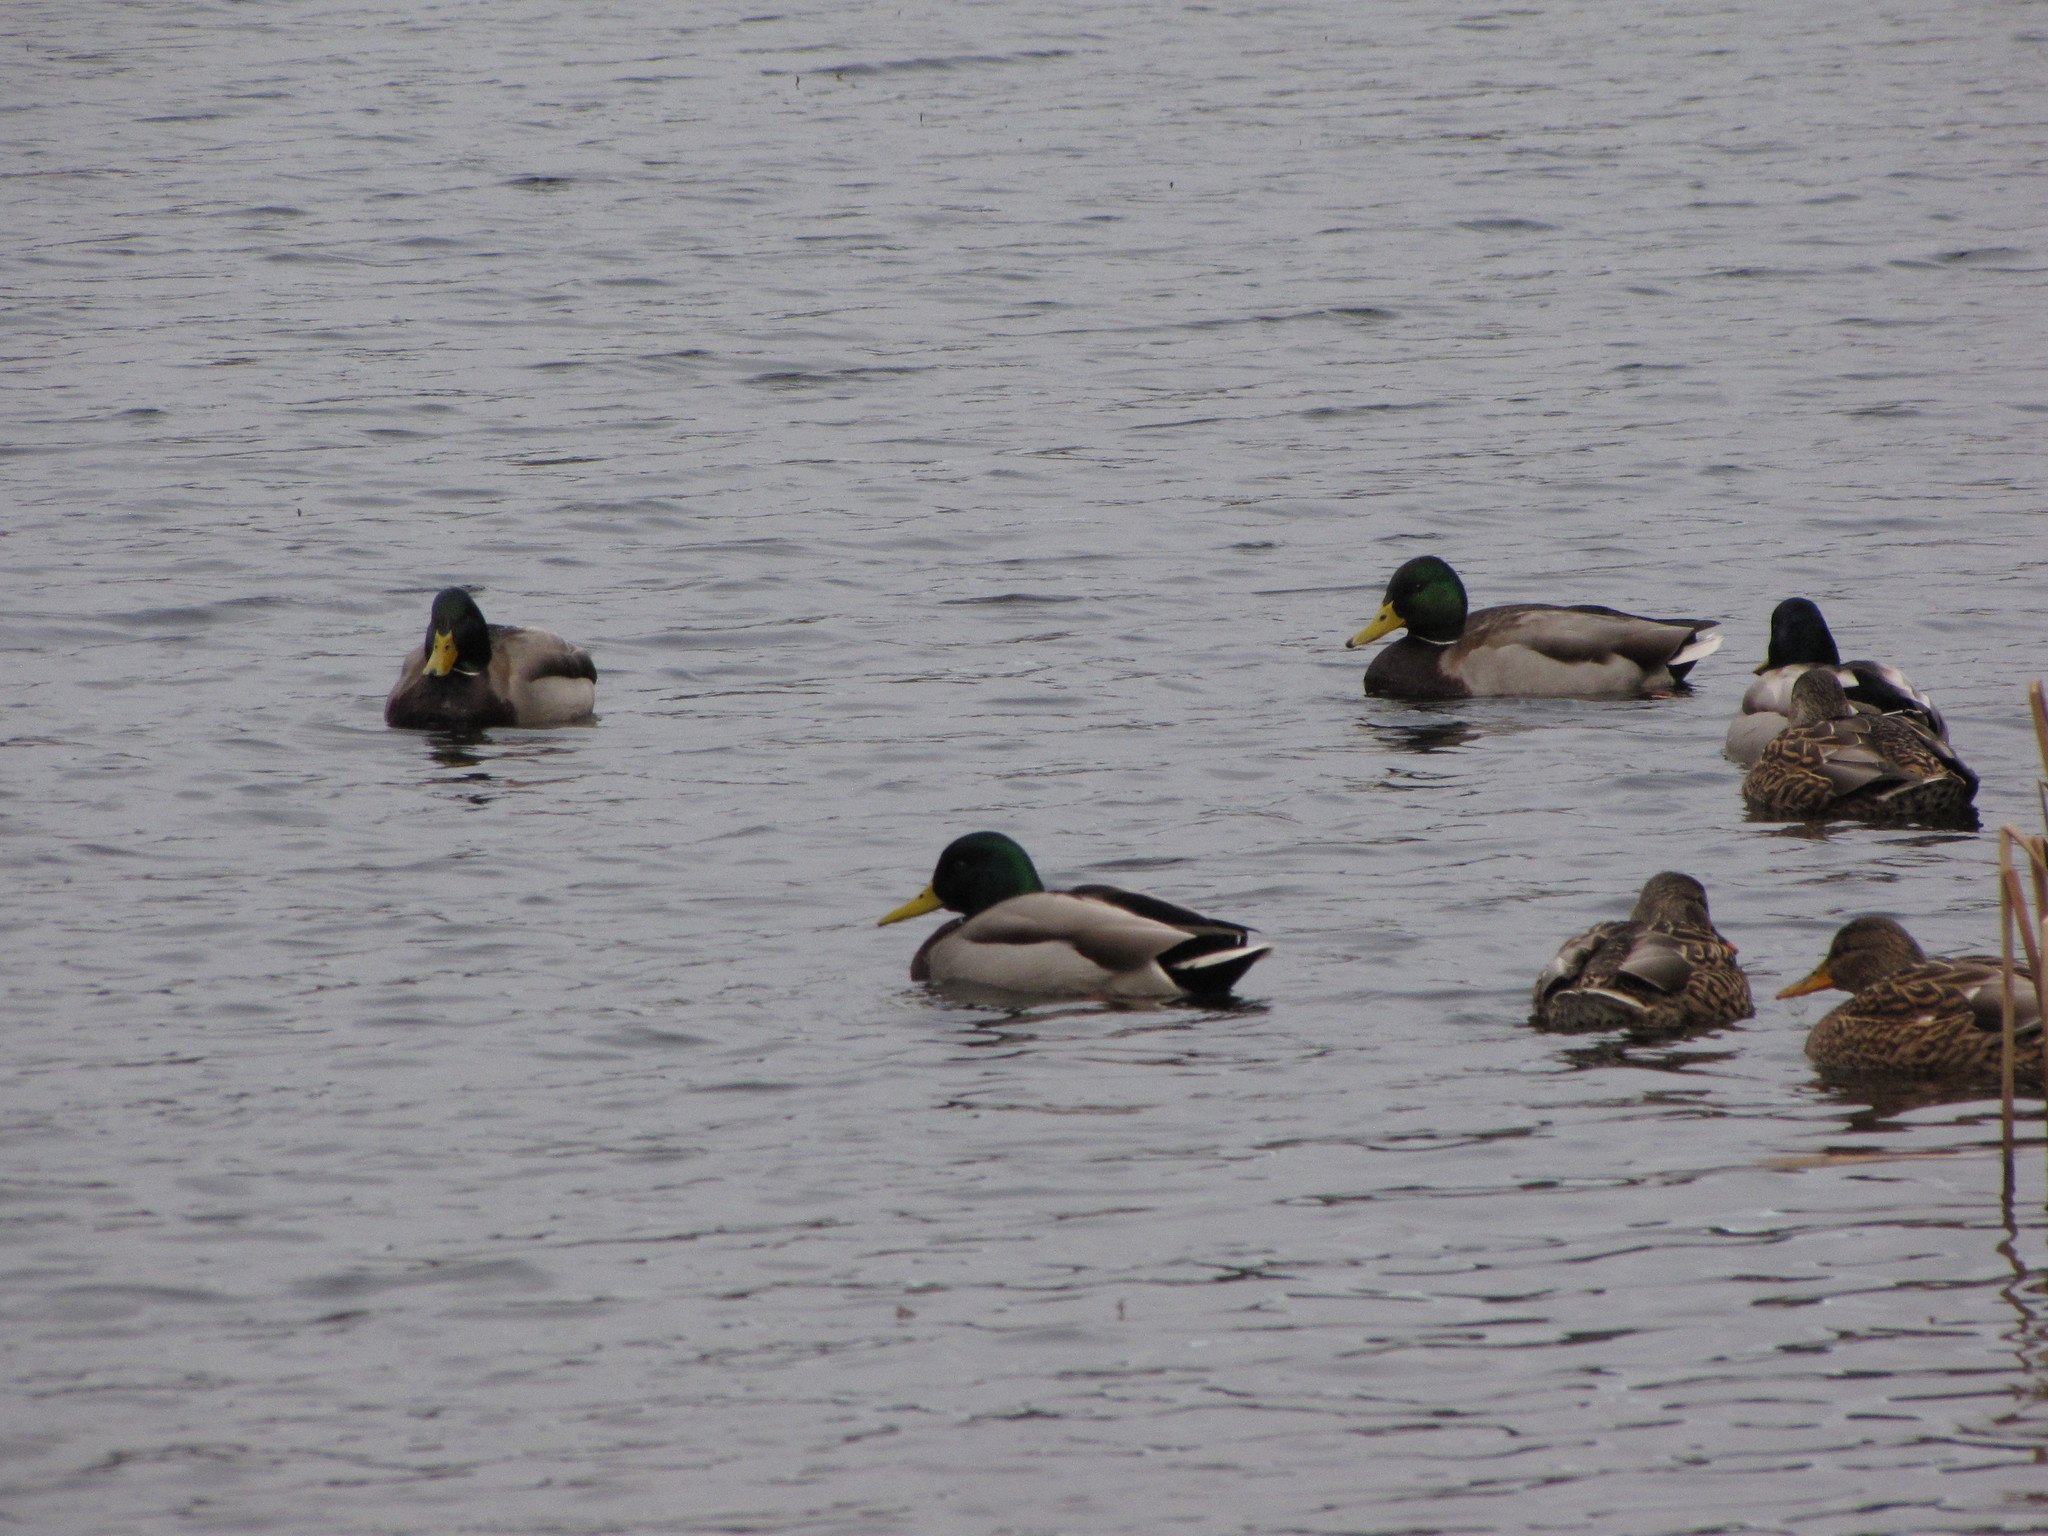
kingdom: Animalia
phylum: Chordata
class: Aves
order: Anseriformes
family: Anatidae
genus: Anas
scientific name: Anas platyrhynchos
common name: Mallard
